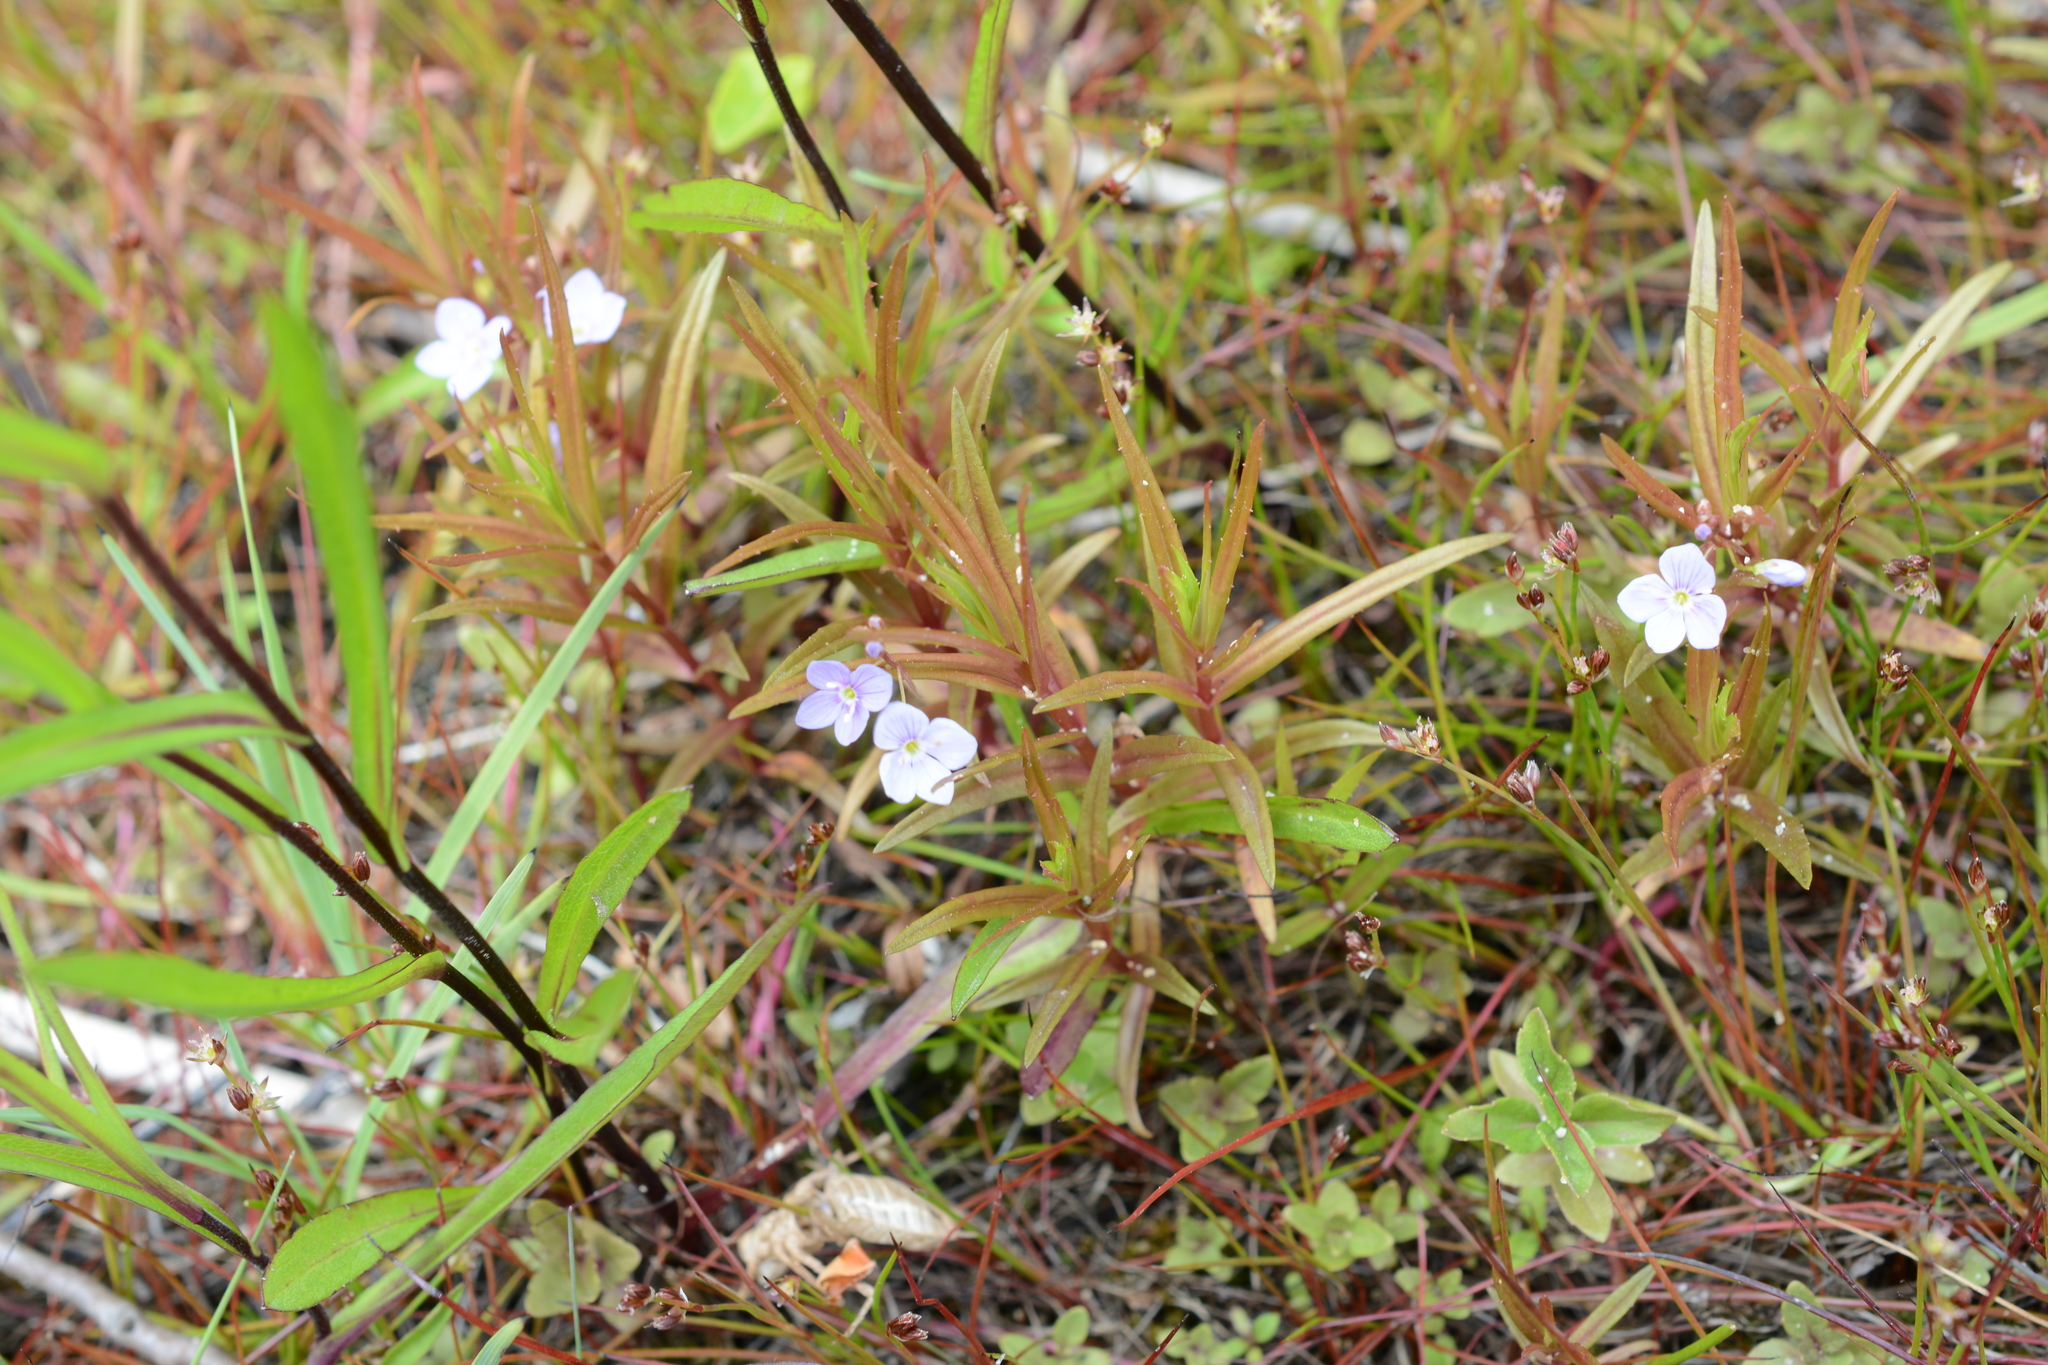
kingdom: Plantae
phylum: Tracheophyta
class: Magnoliopsida
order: Lamiales
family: Plantaginaceae
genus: Veronica
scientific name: Veronica scutellata
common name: Marsh speedwell
